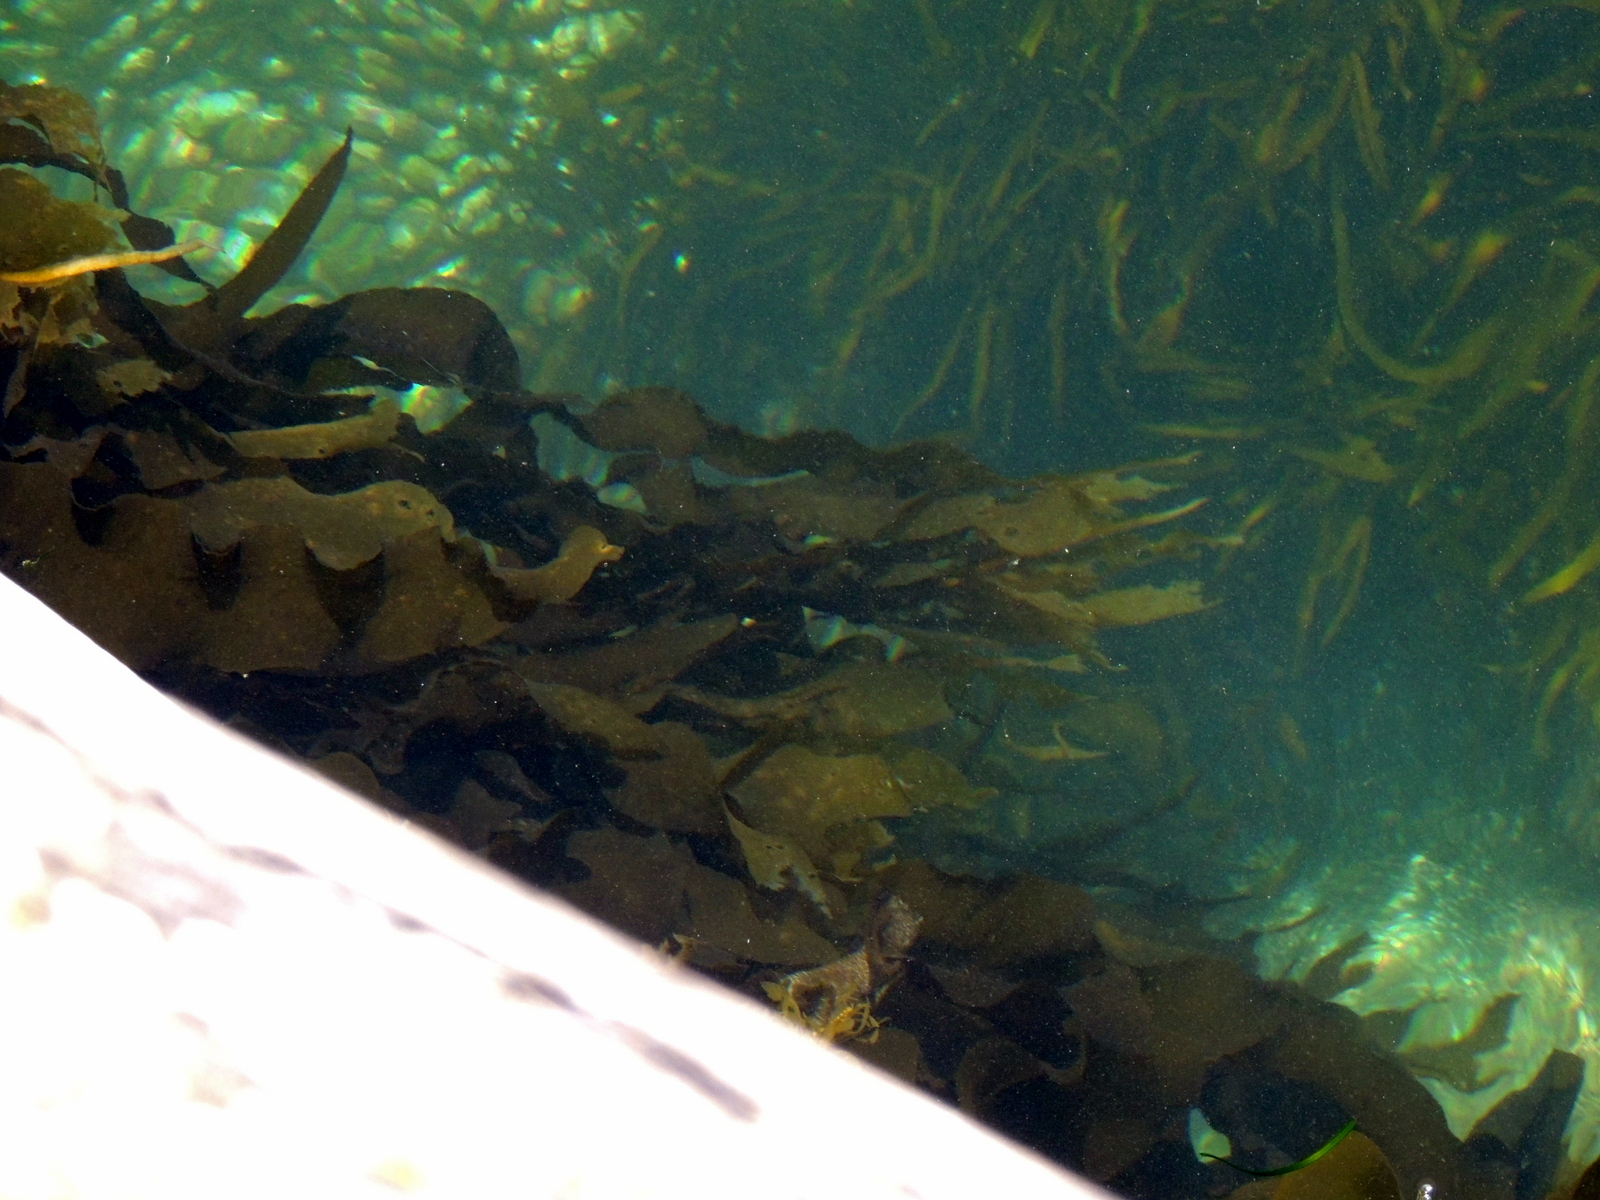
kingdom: Chromista
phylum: Ochrophyta
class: Phaeophyceae
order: Laminariales
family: Lessoniaceae
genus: Ecklonia
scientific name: Ecklonia radiata
